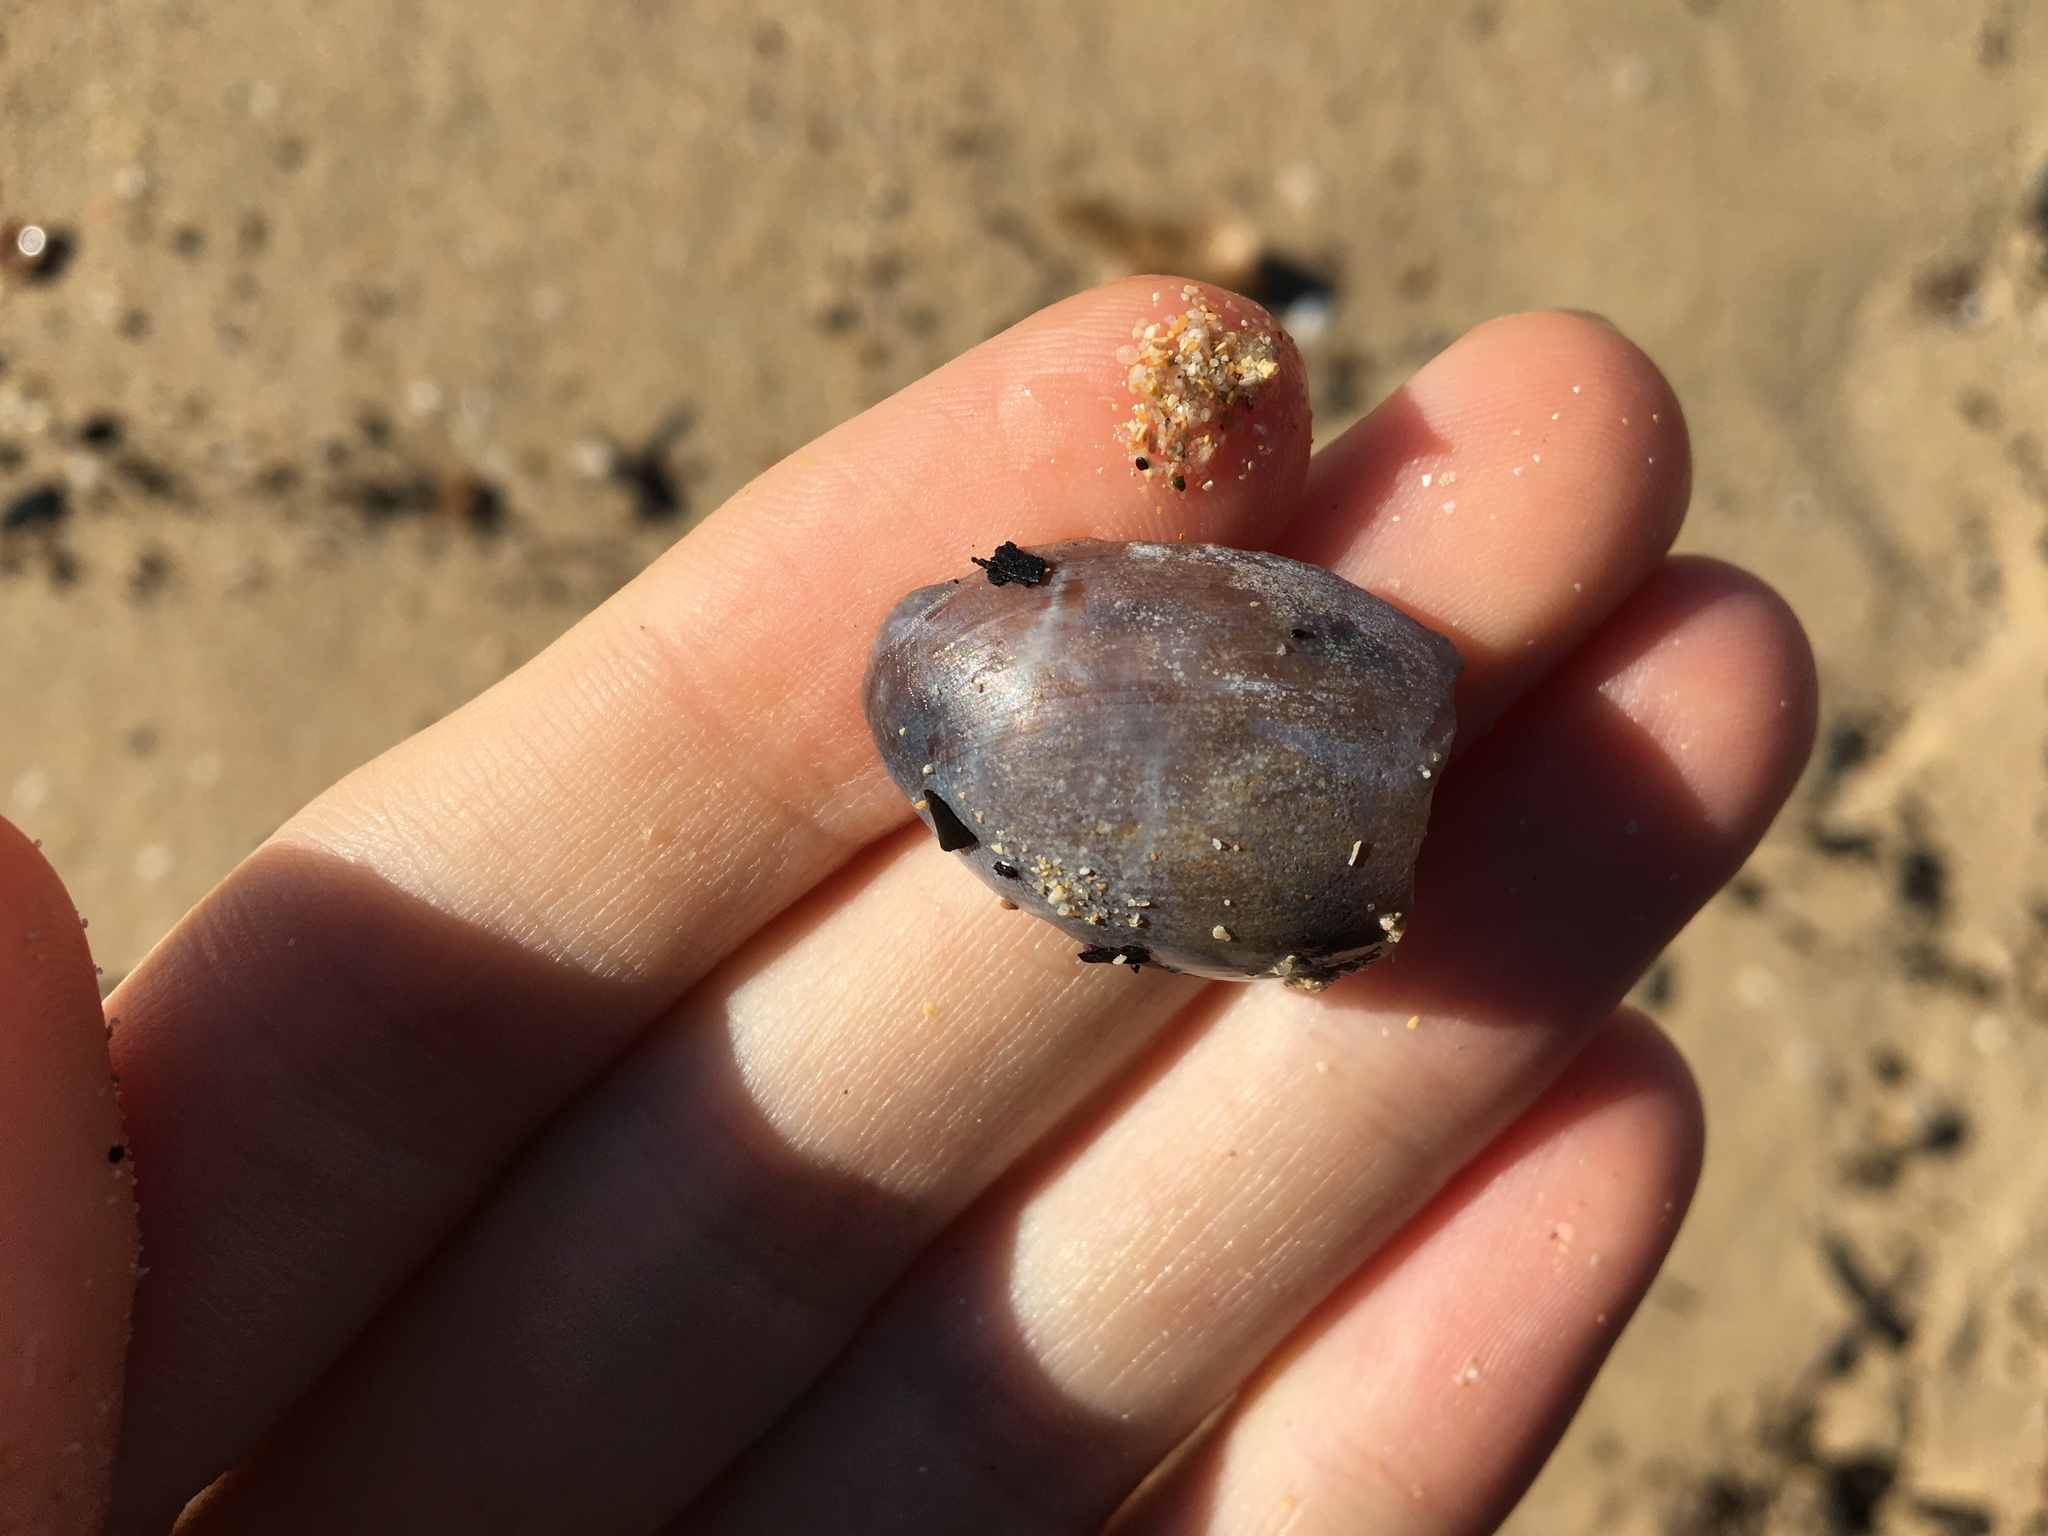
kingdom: Animalia
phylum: Mollusca
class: Gastropoda
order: Cephalaspidea
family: Bullidae
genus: Bulla
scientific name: Bulla quoyii
